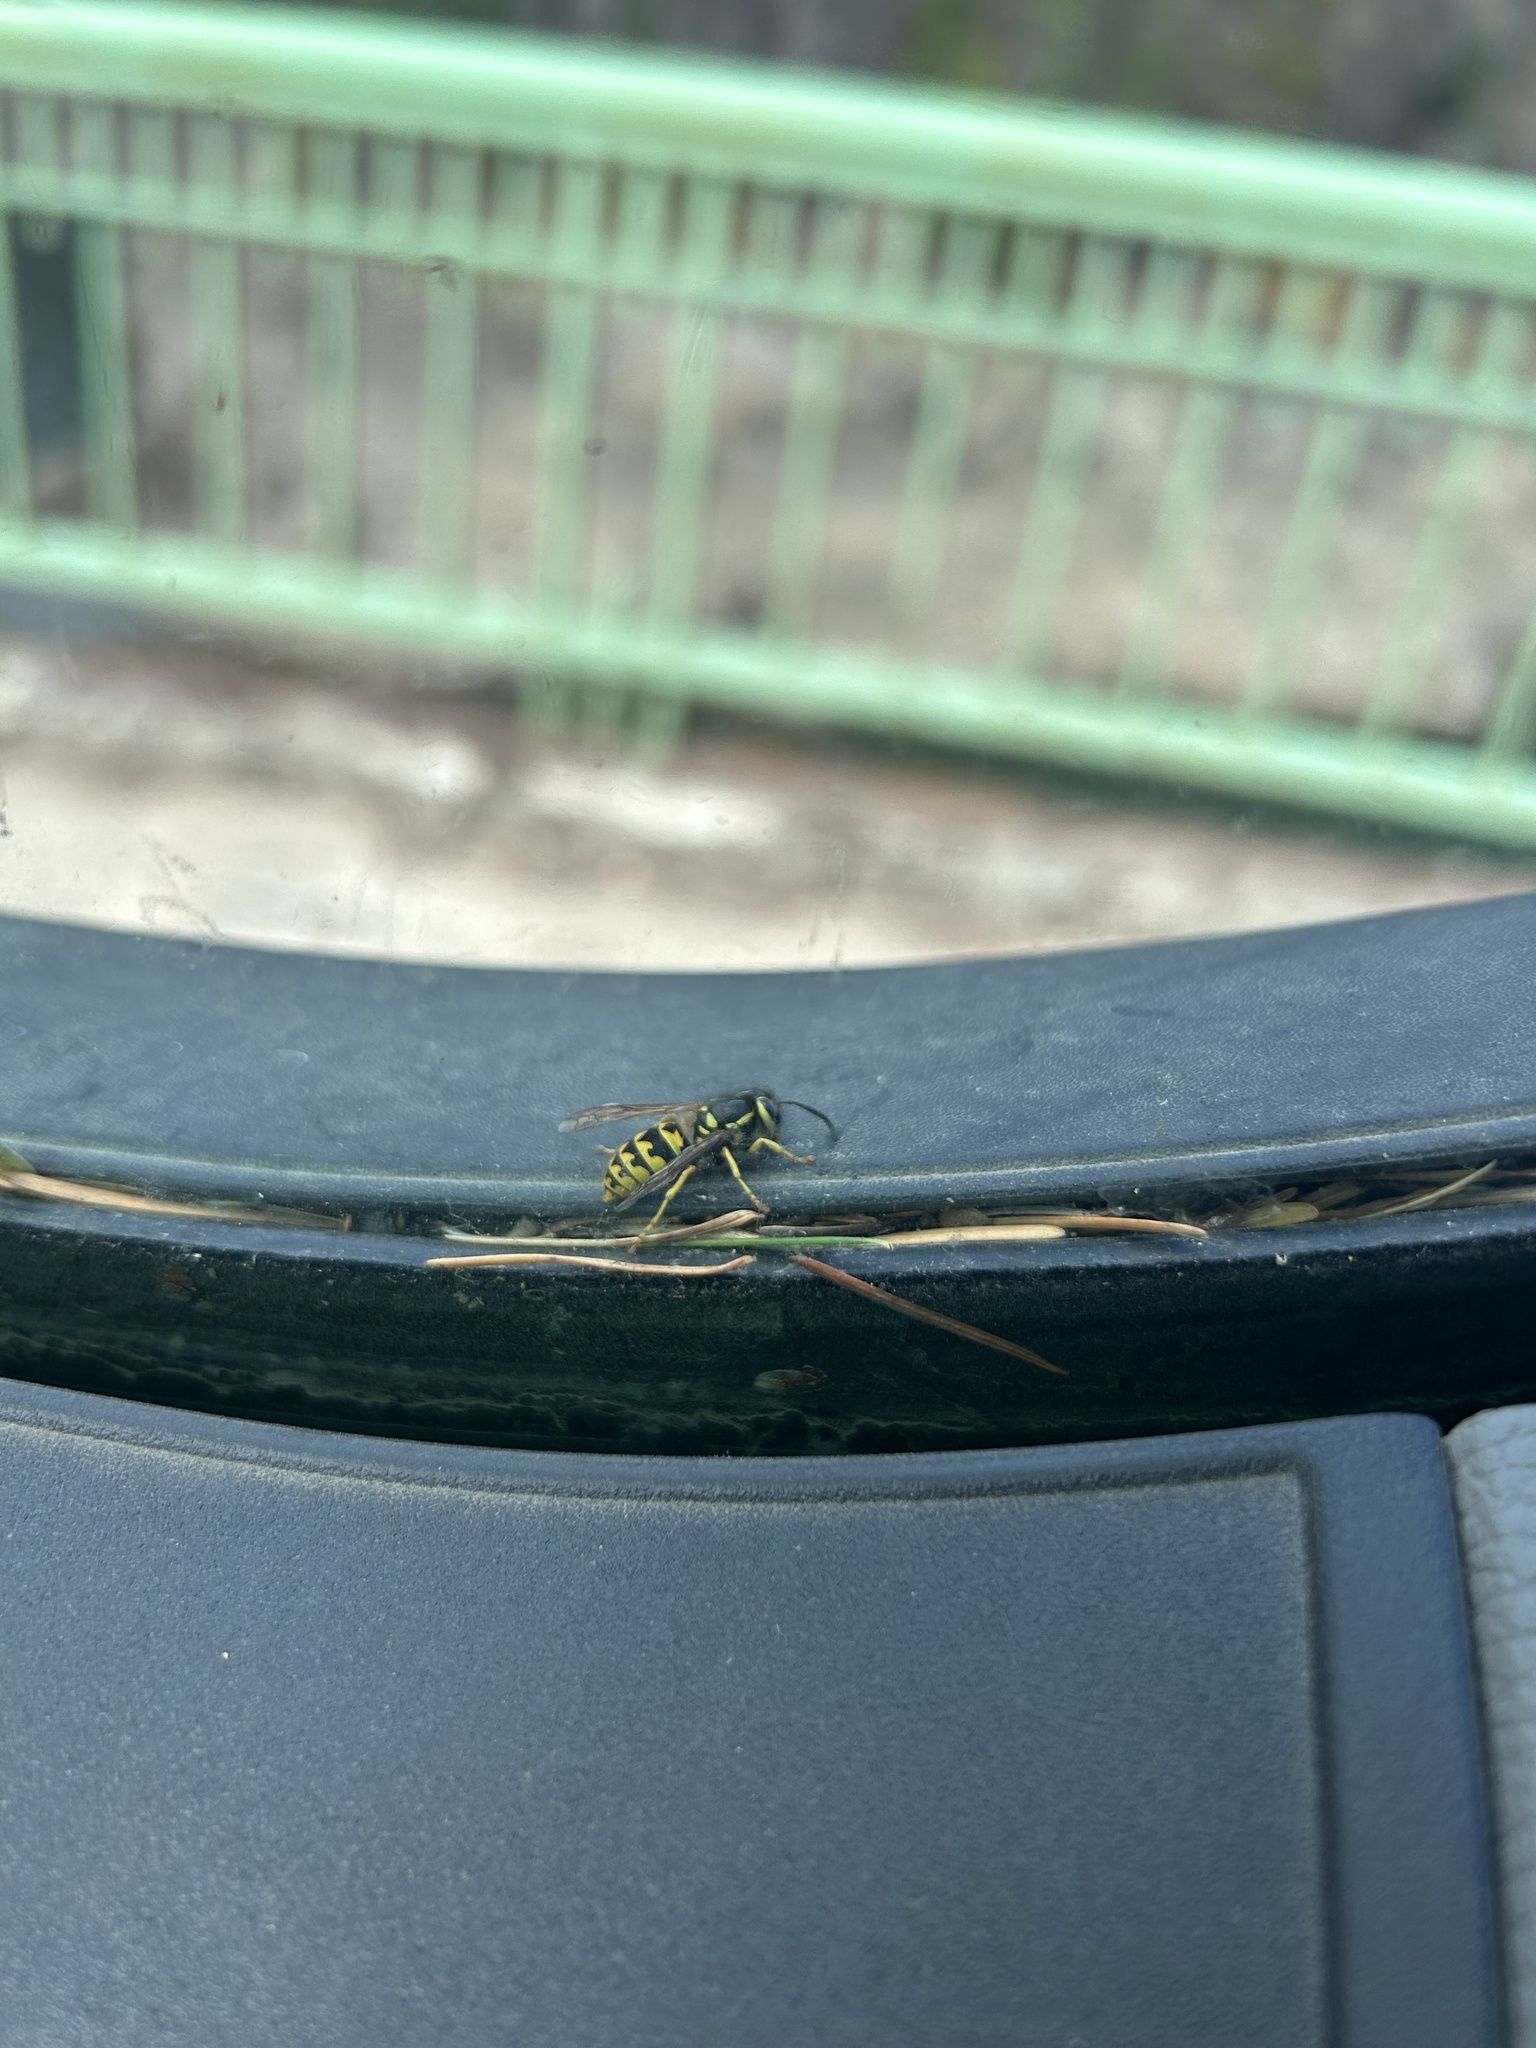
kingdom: Animalia
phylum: Arthropoda
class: Insecta
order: Hymenoptera
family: Vespidae
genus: Vespula
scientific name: Vespula pensylvanica
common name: Western yellowjacket
